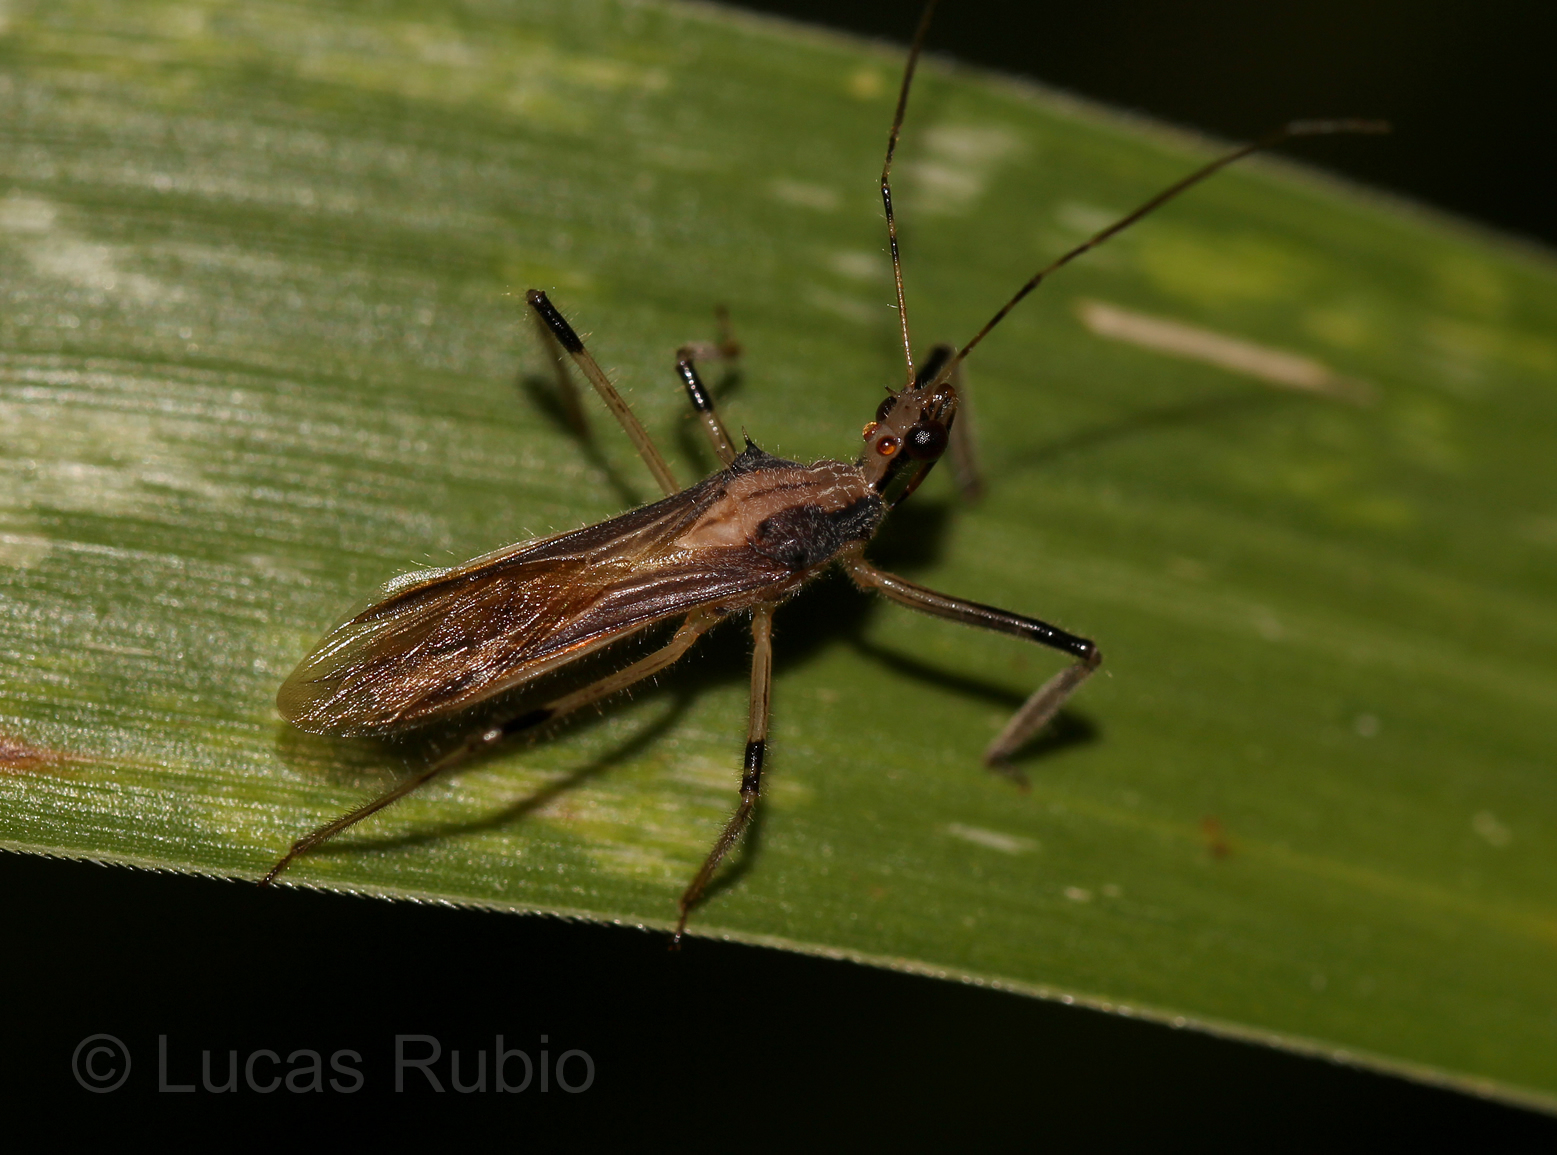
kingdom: Animalia
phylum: Arthropoda
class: Insecta
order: Hemiptera
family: Reduviidae
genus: Repipta
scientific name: Repipta argentinensis
